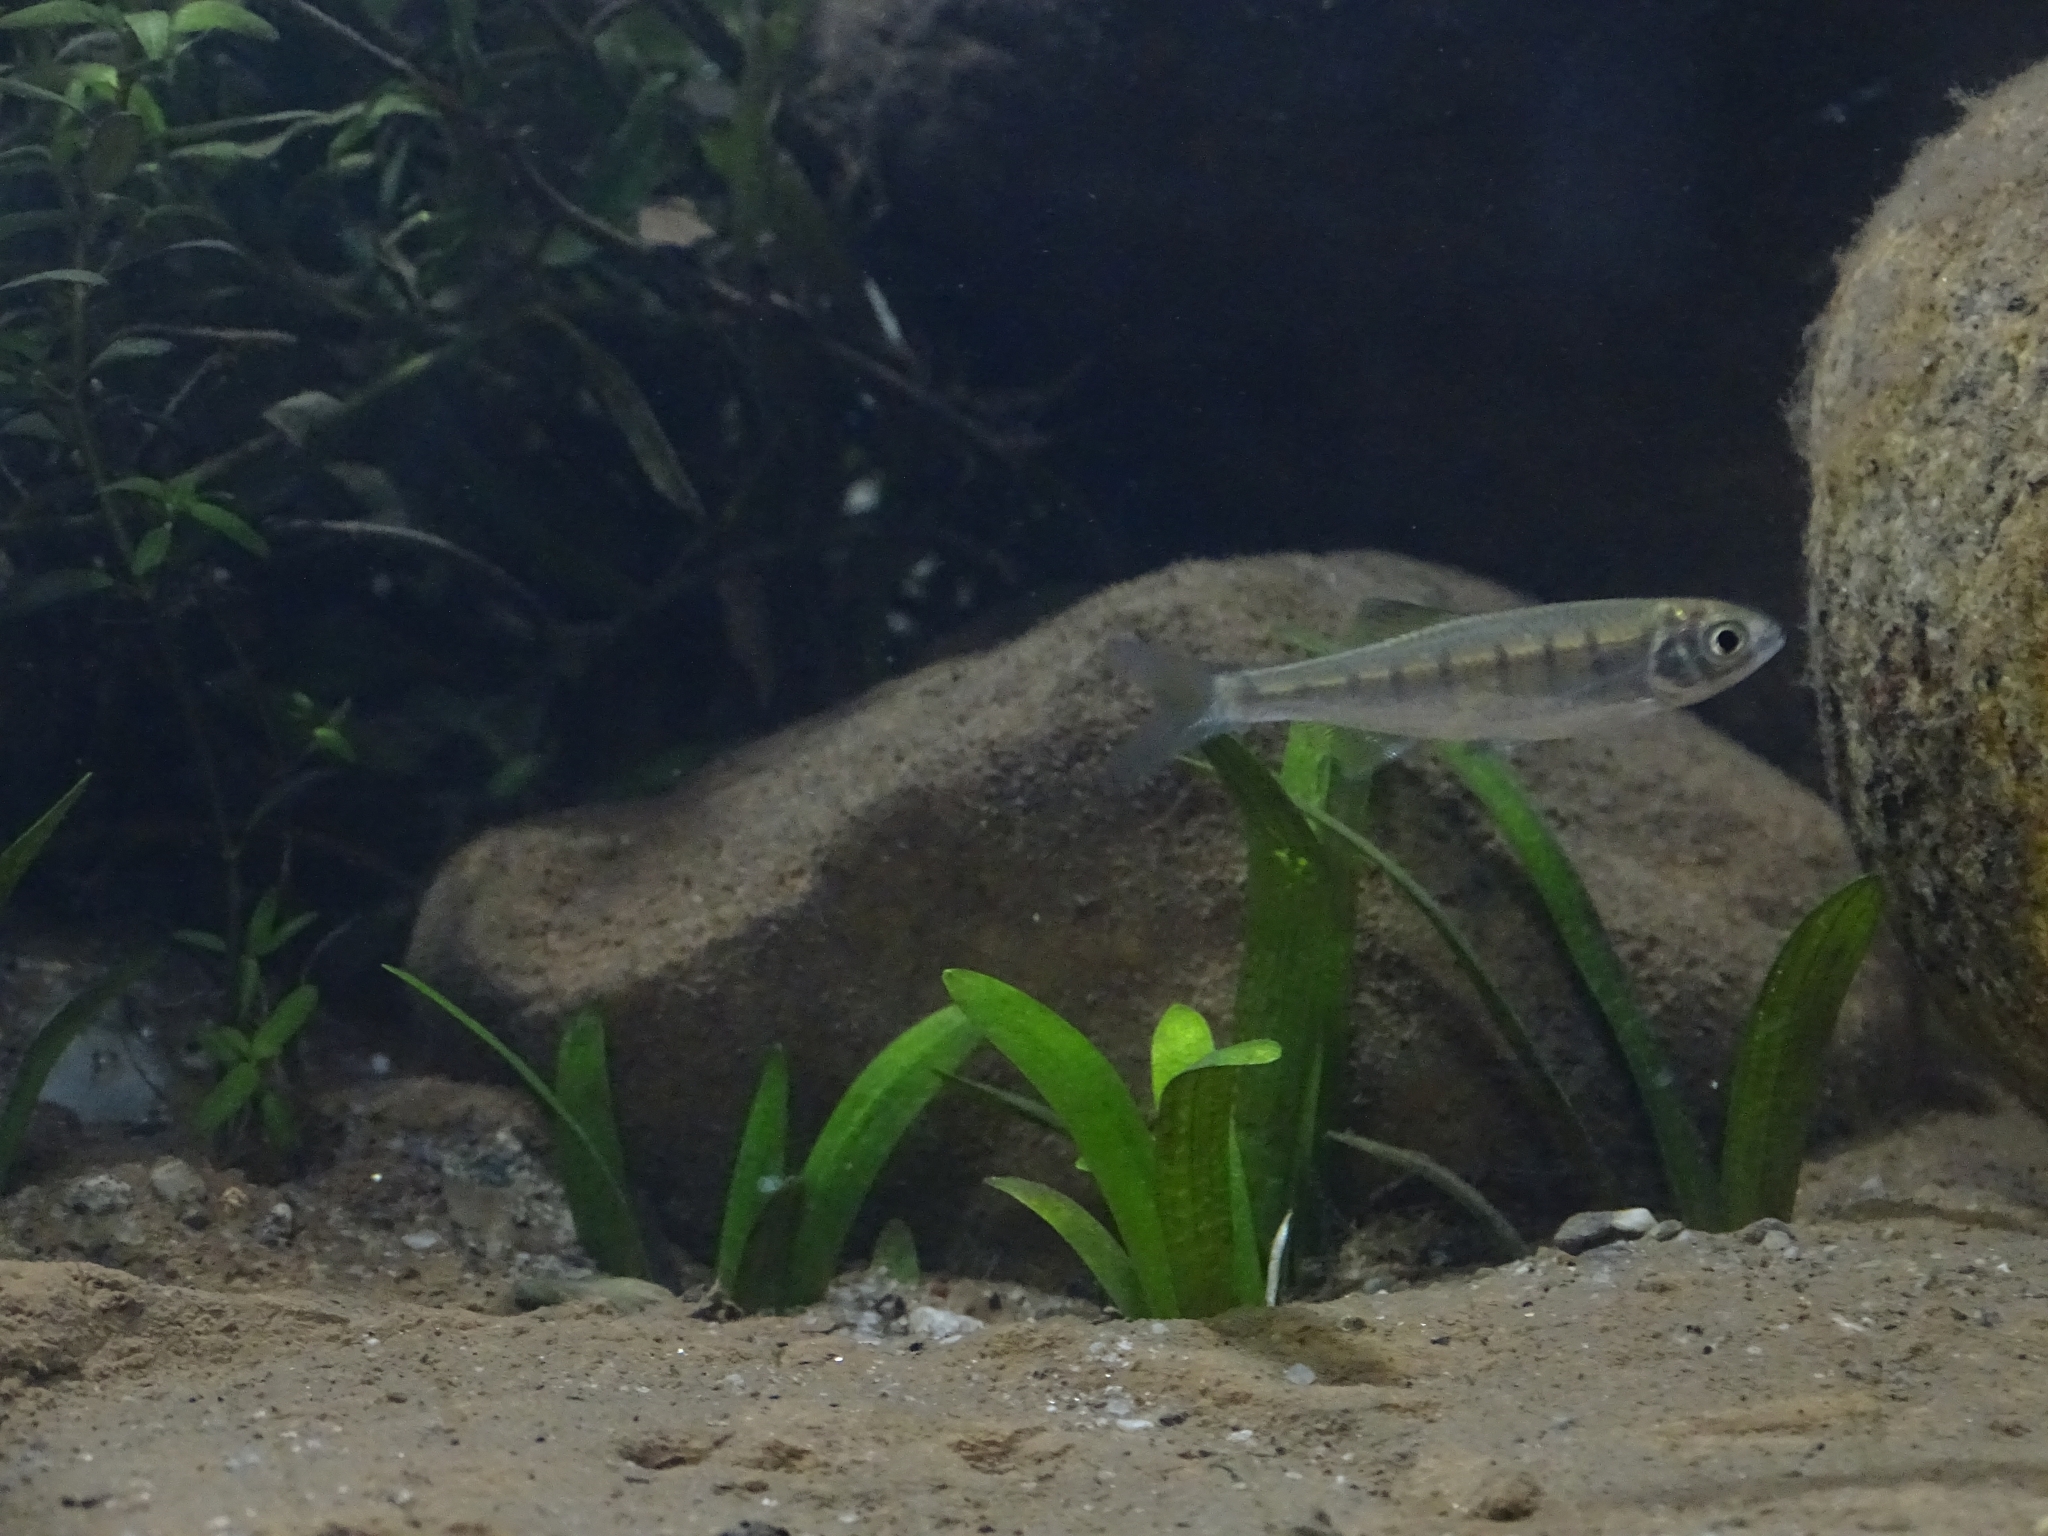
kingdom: Animalia
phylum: Chordata
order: Cypriniformes
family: Cyprinidae
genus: Barilius
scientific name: Barilius barila
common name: Barred baril
